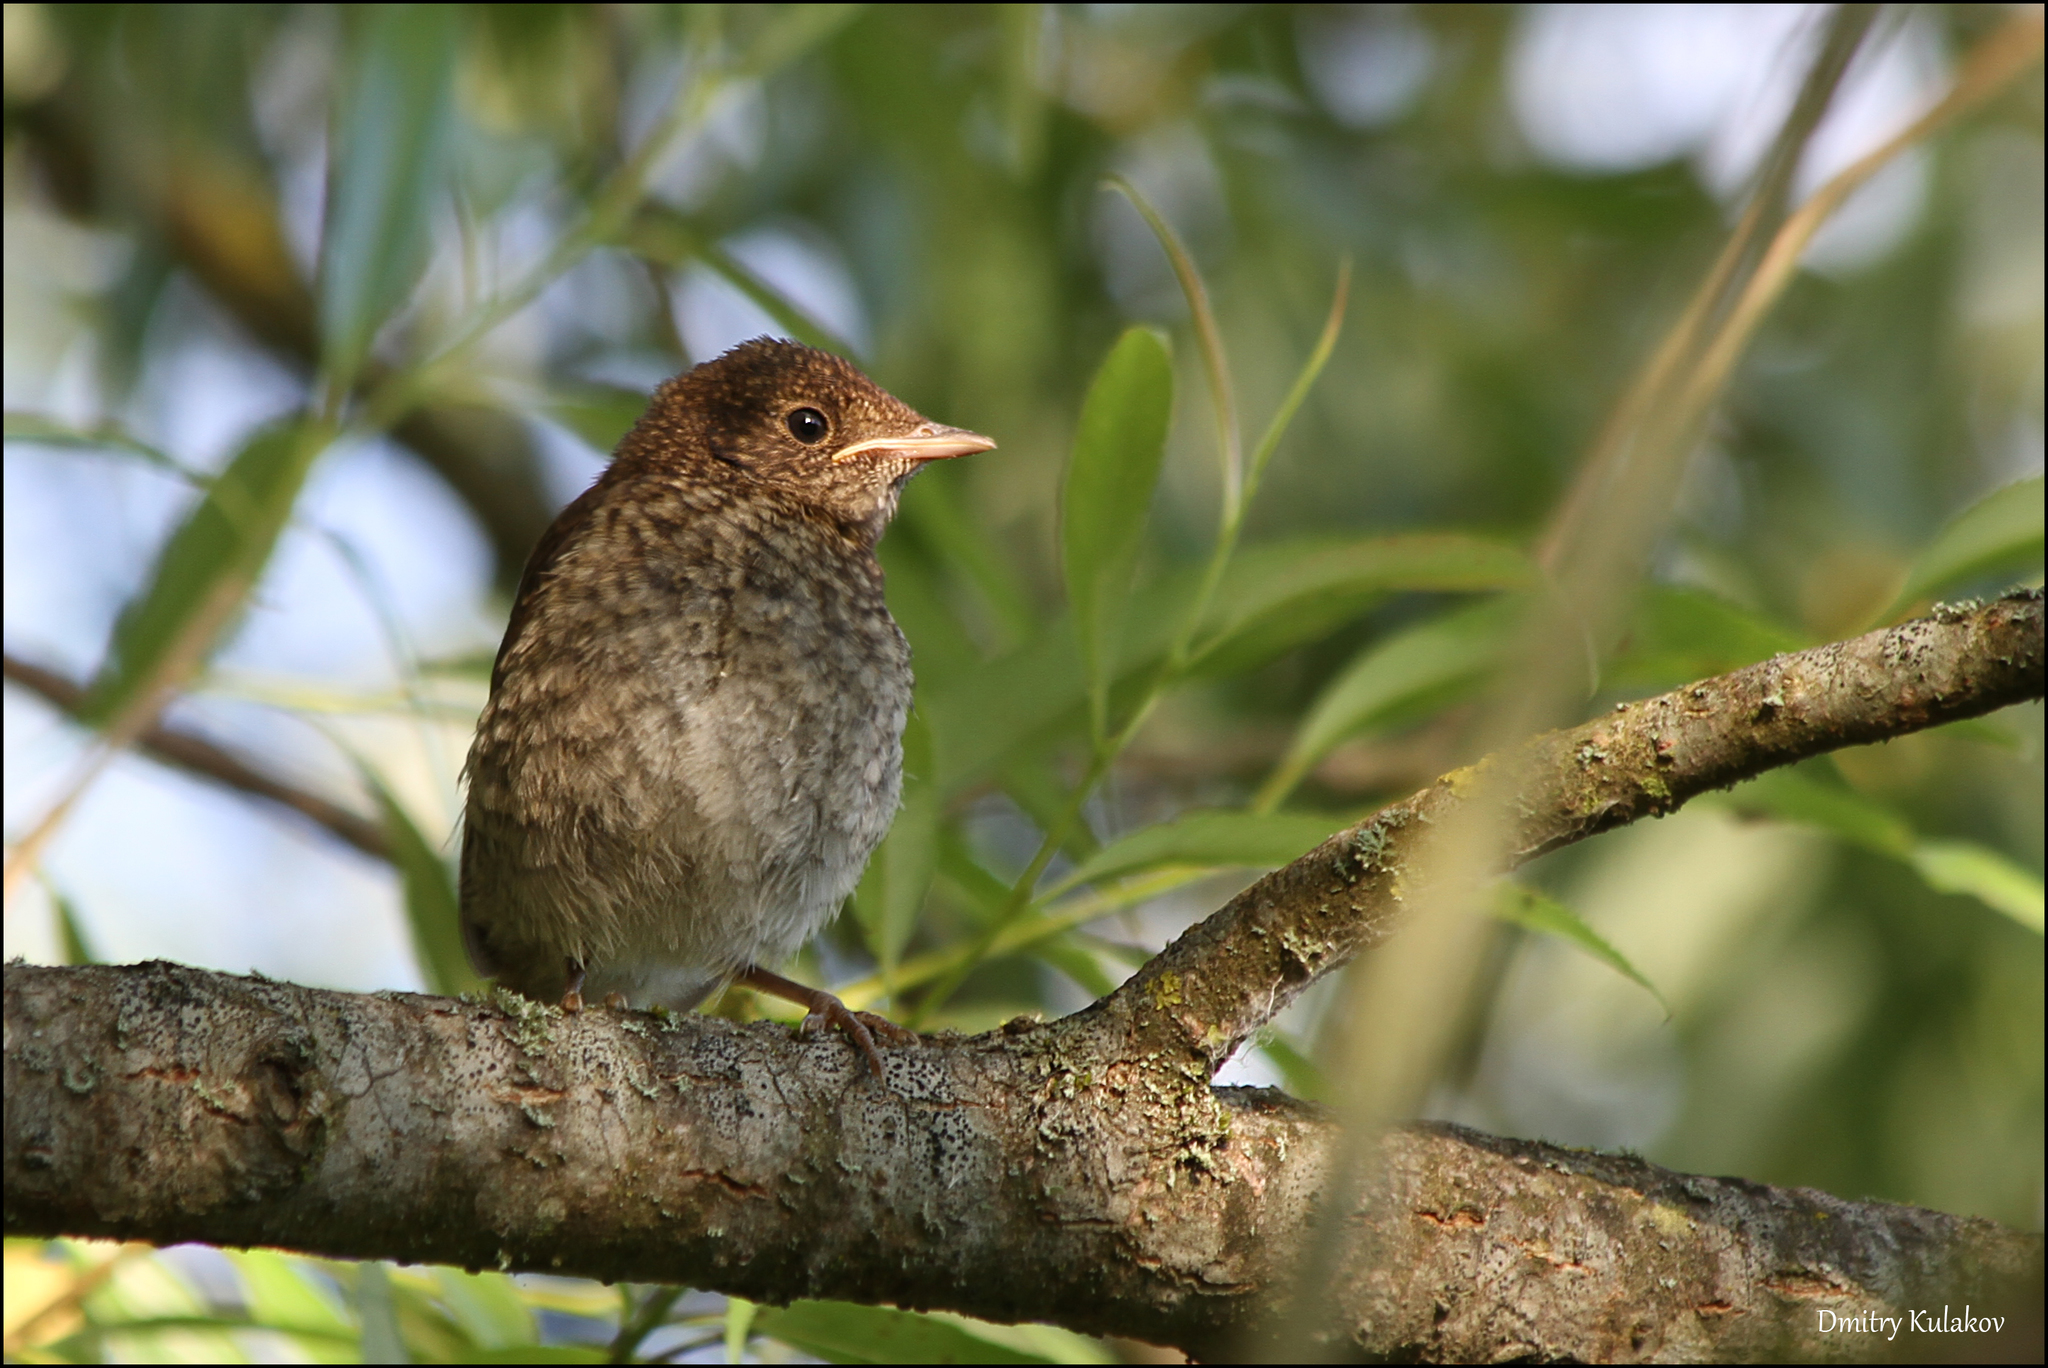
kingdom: Animalia
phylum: Chordata
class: Aves
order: Passeriformes
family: Muscicapidae
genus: Luscinia
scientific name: Luscinia luscinia
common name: Thrush nightingale
